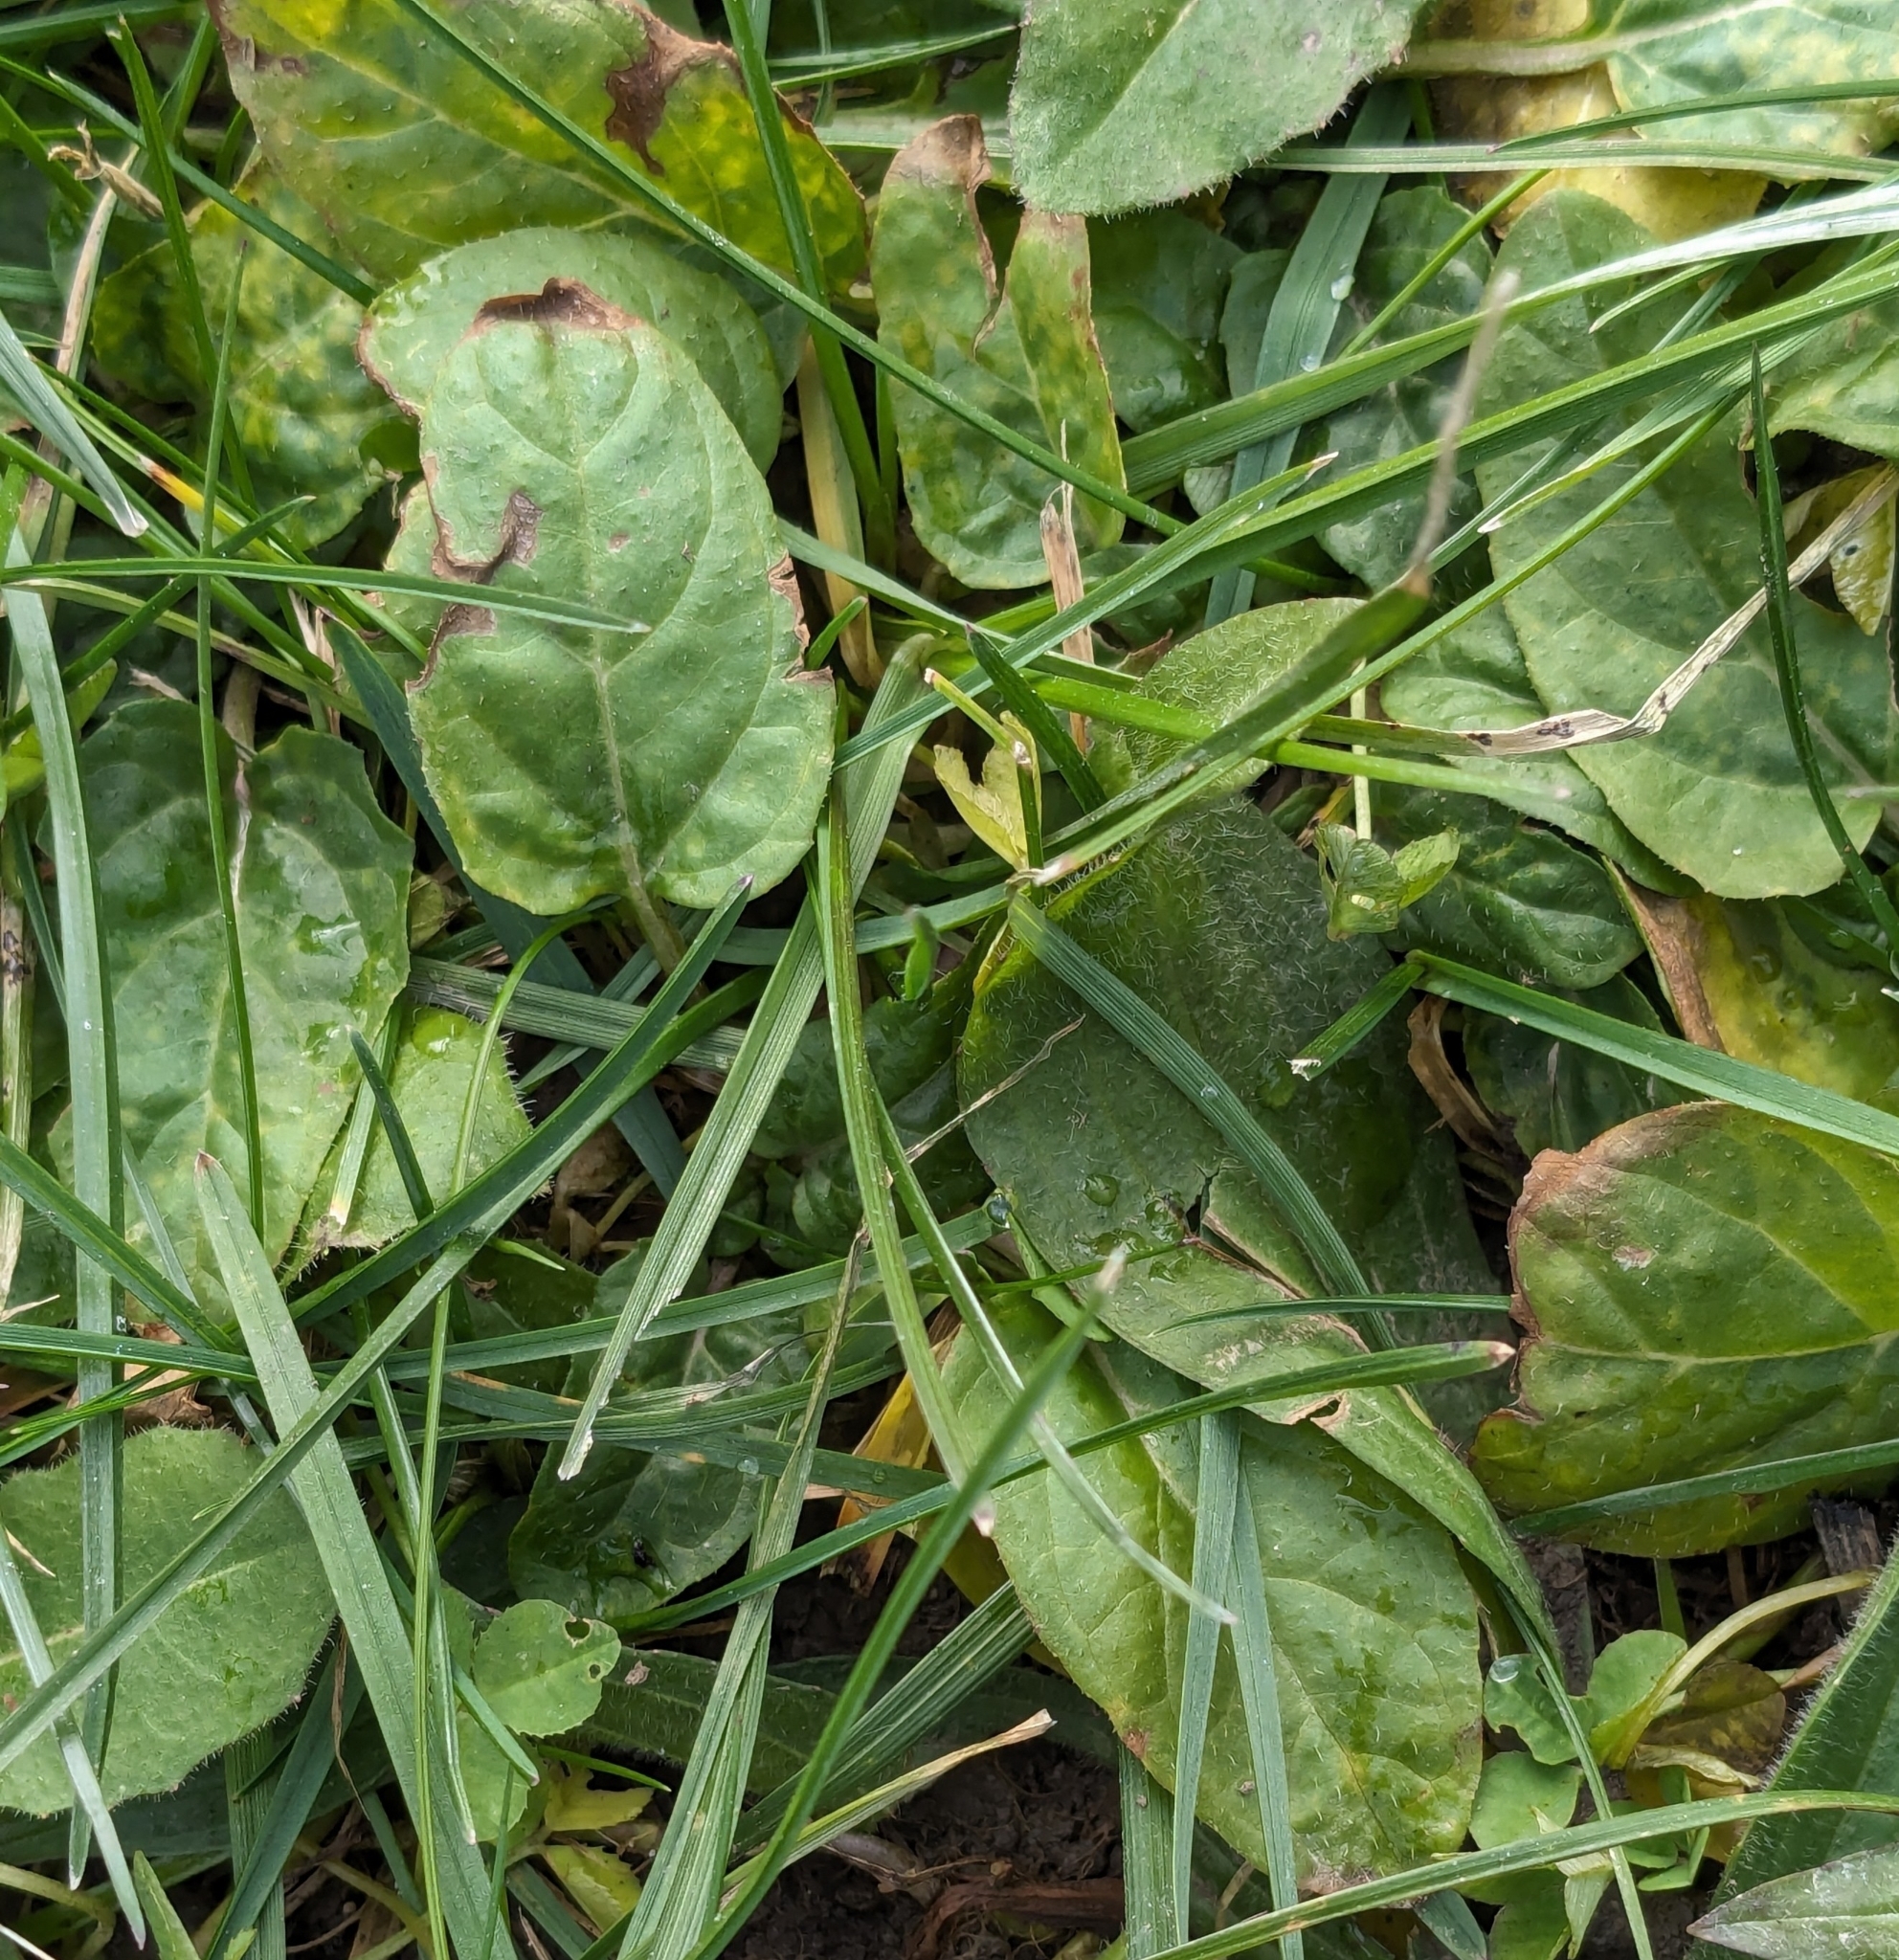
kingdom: Plantae
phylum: Tracheophyta
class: Magnoliopsida
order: Lamiales
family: Lamiaceae
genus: Prunella
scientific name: Prunella vulgaris
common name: Heal-all
